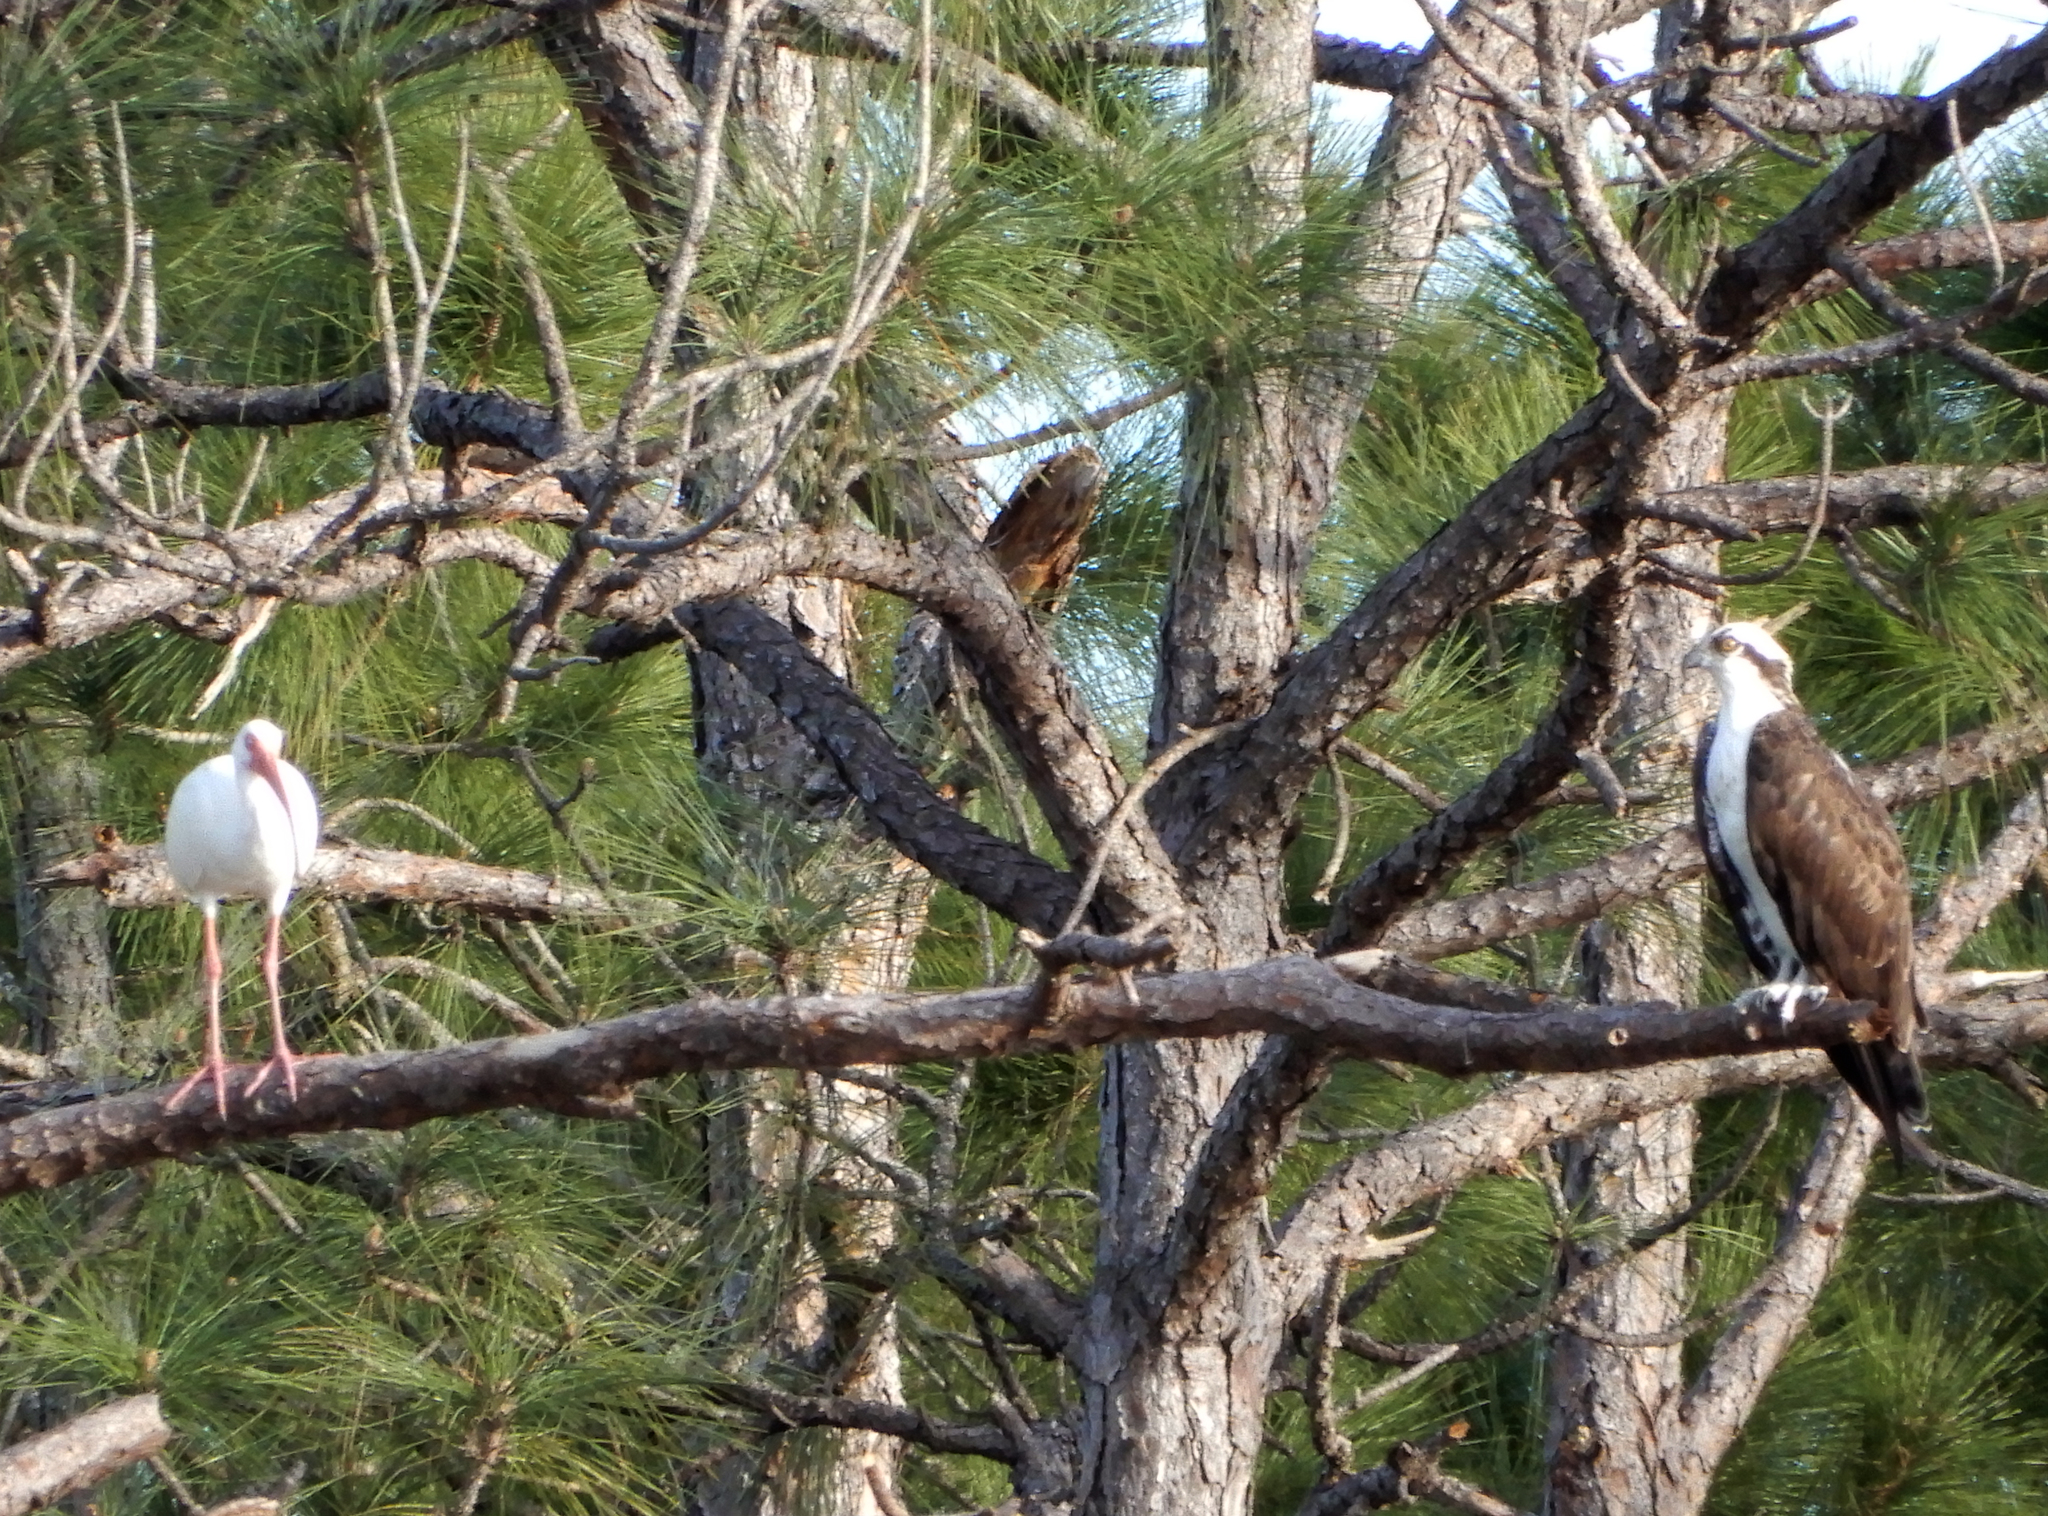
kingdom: Animalia
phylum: Chordata
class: Aves
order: Accipitriformes
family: Pandionidae
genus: Pandion
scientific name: Pandion haliaetus
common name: Osprey
